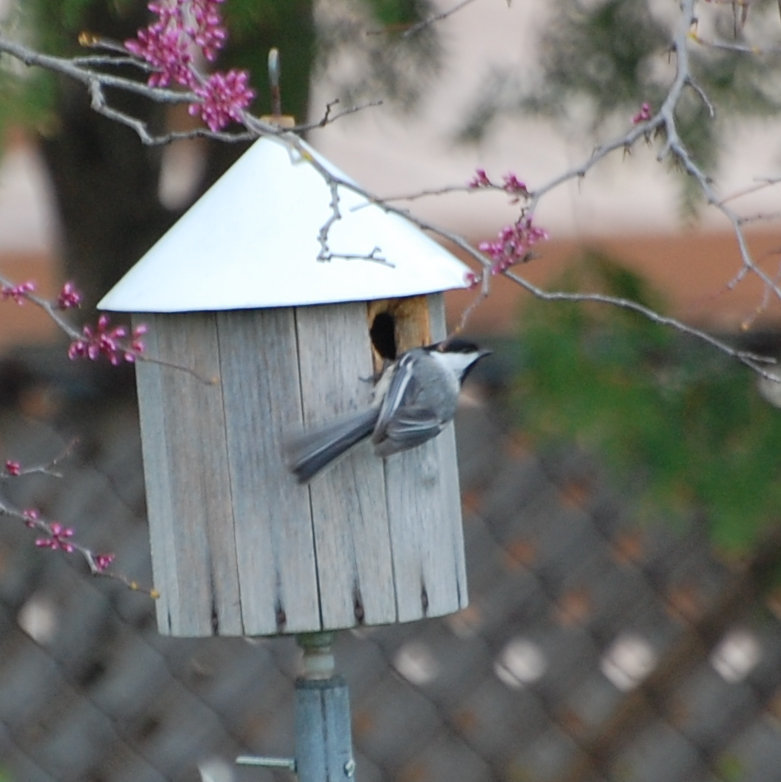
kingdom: Animalia
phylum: Chordata
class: Aves
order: Passeriformes
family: Paridae
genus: Poecile
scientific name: Poecile atricapillus
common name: Black-capped chickadee
